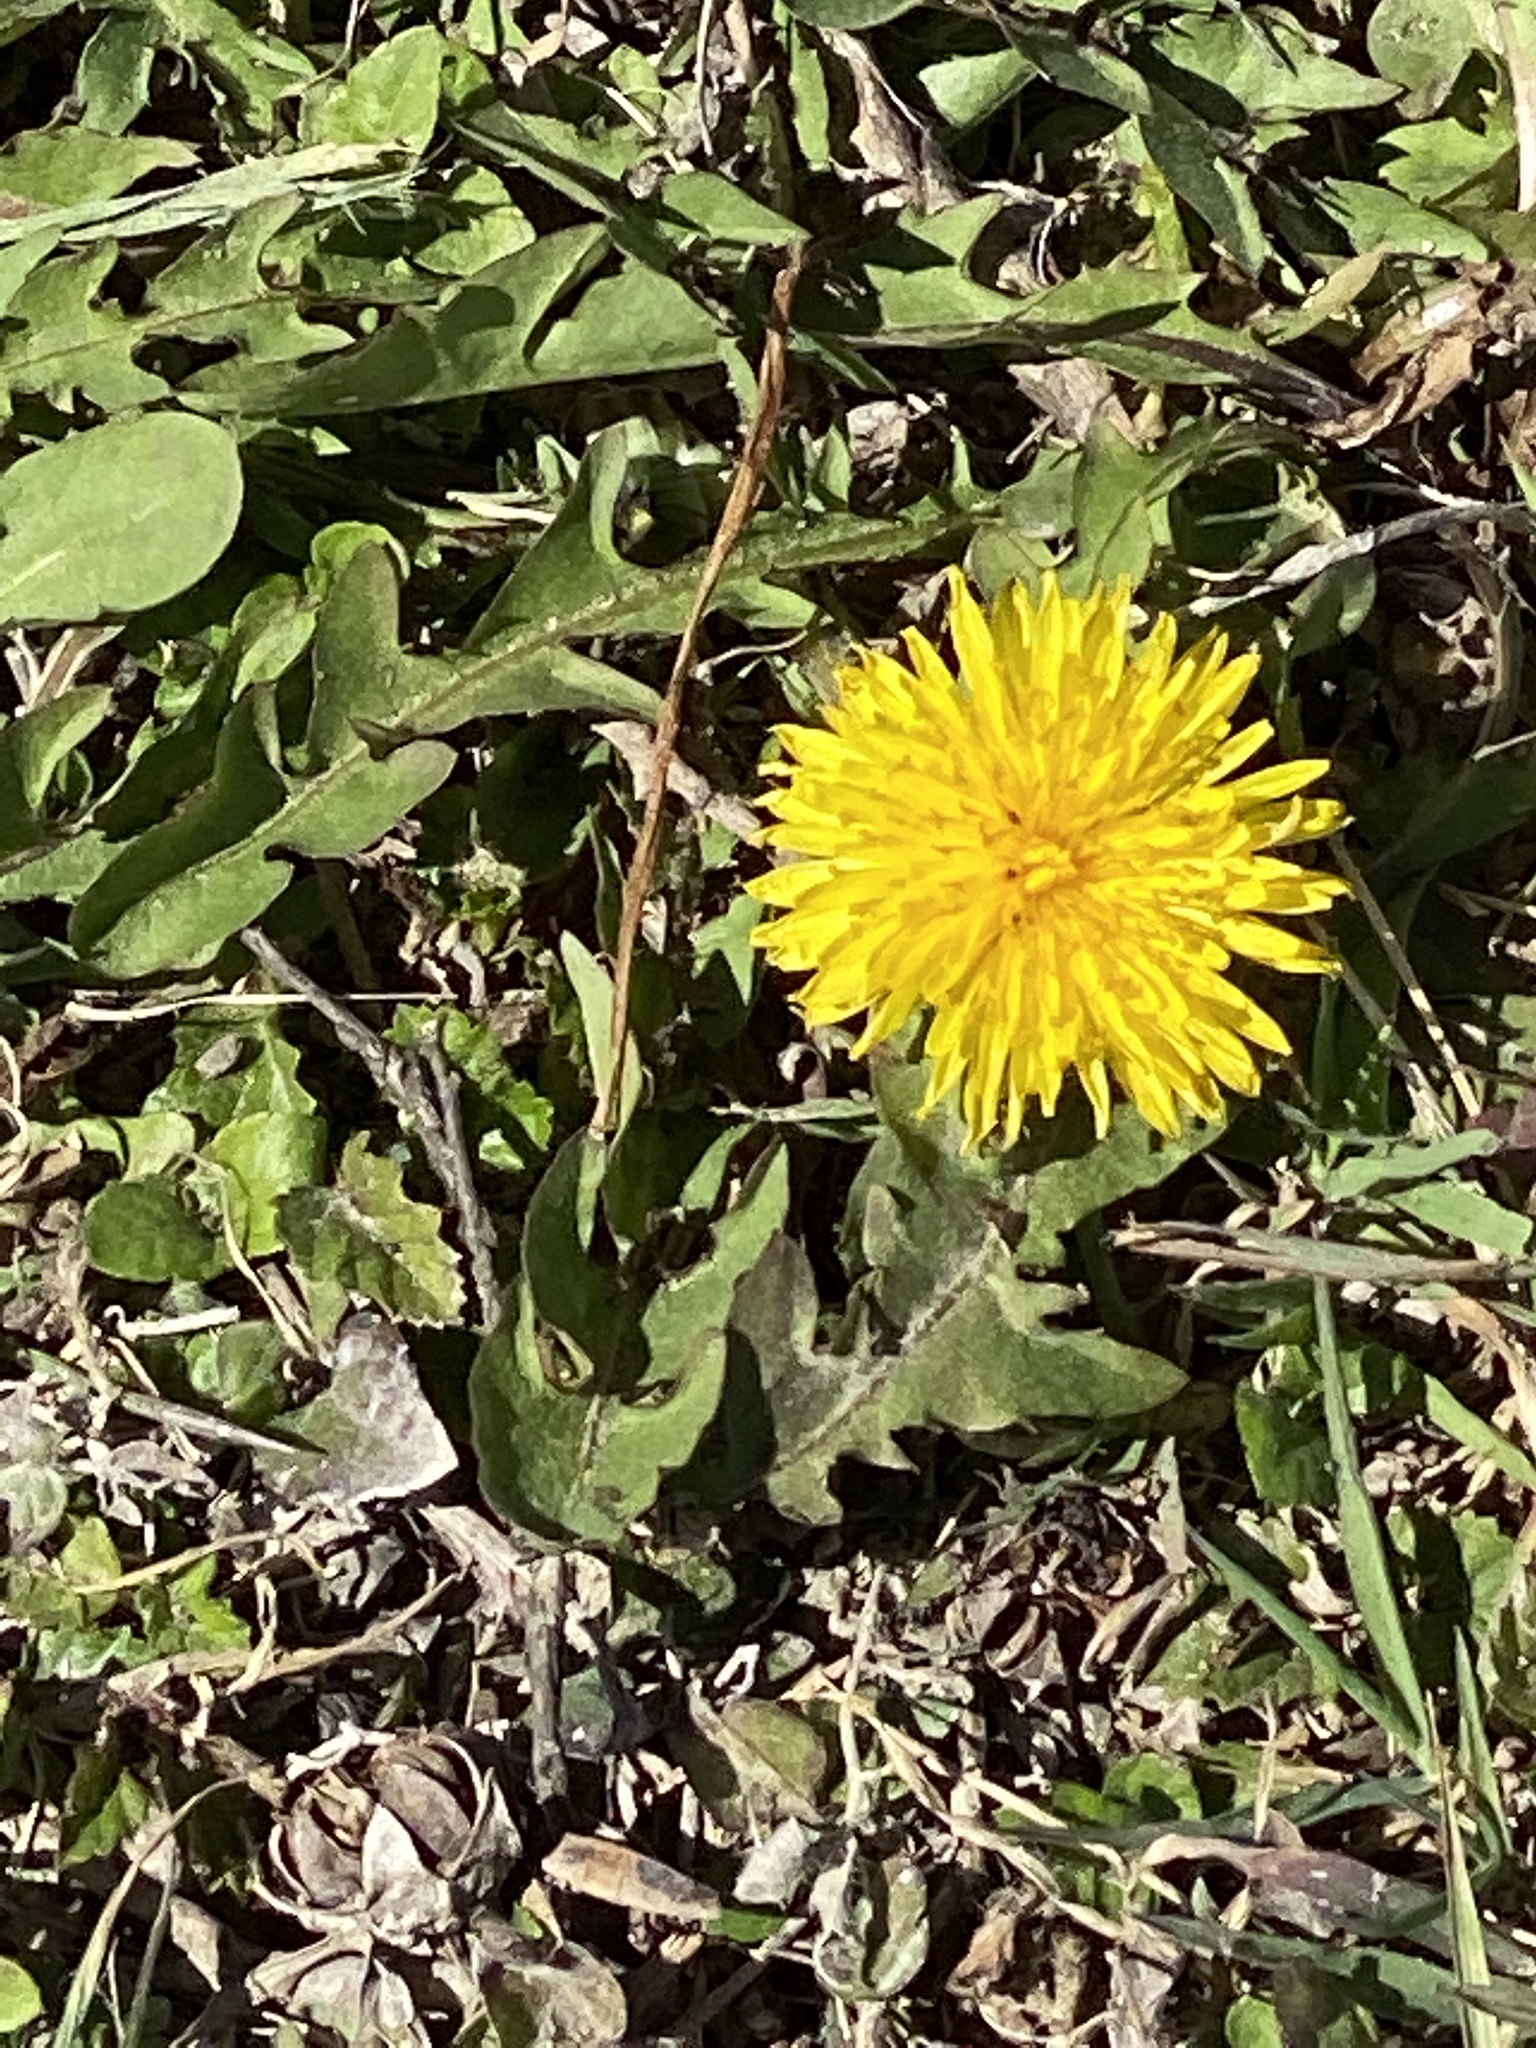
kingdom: Plantae
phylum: Tracheophyta
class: Magnoliopsida
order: Asterales
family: Asteraceae
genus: Taraxacum
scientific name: Taraxacum officinale
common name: Common dandelion
